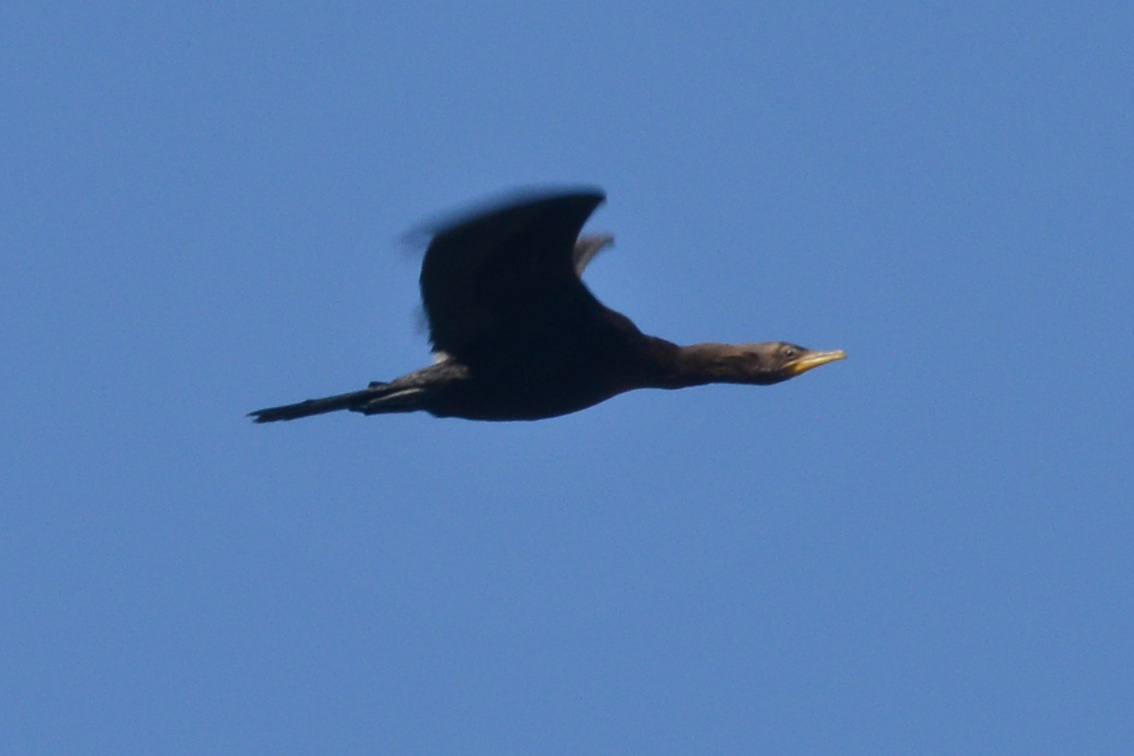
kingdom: Animalia
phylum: Chordata
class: Aves
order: Suliformes
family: Phalacrocoracidae
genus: Microcarbo
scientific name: Microcarbo melanoleucos
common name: Little pied cormorant
